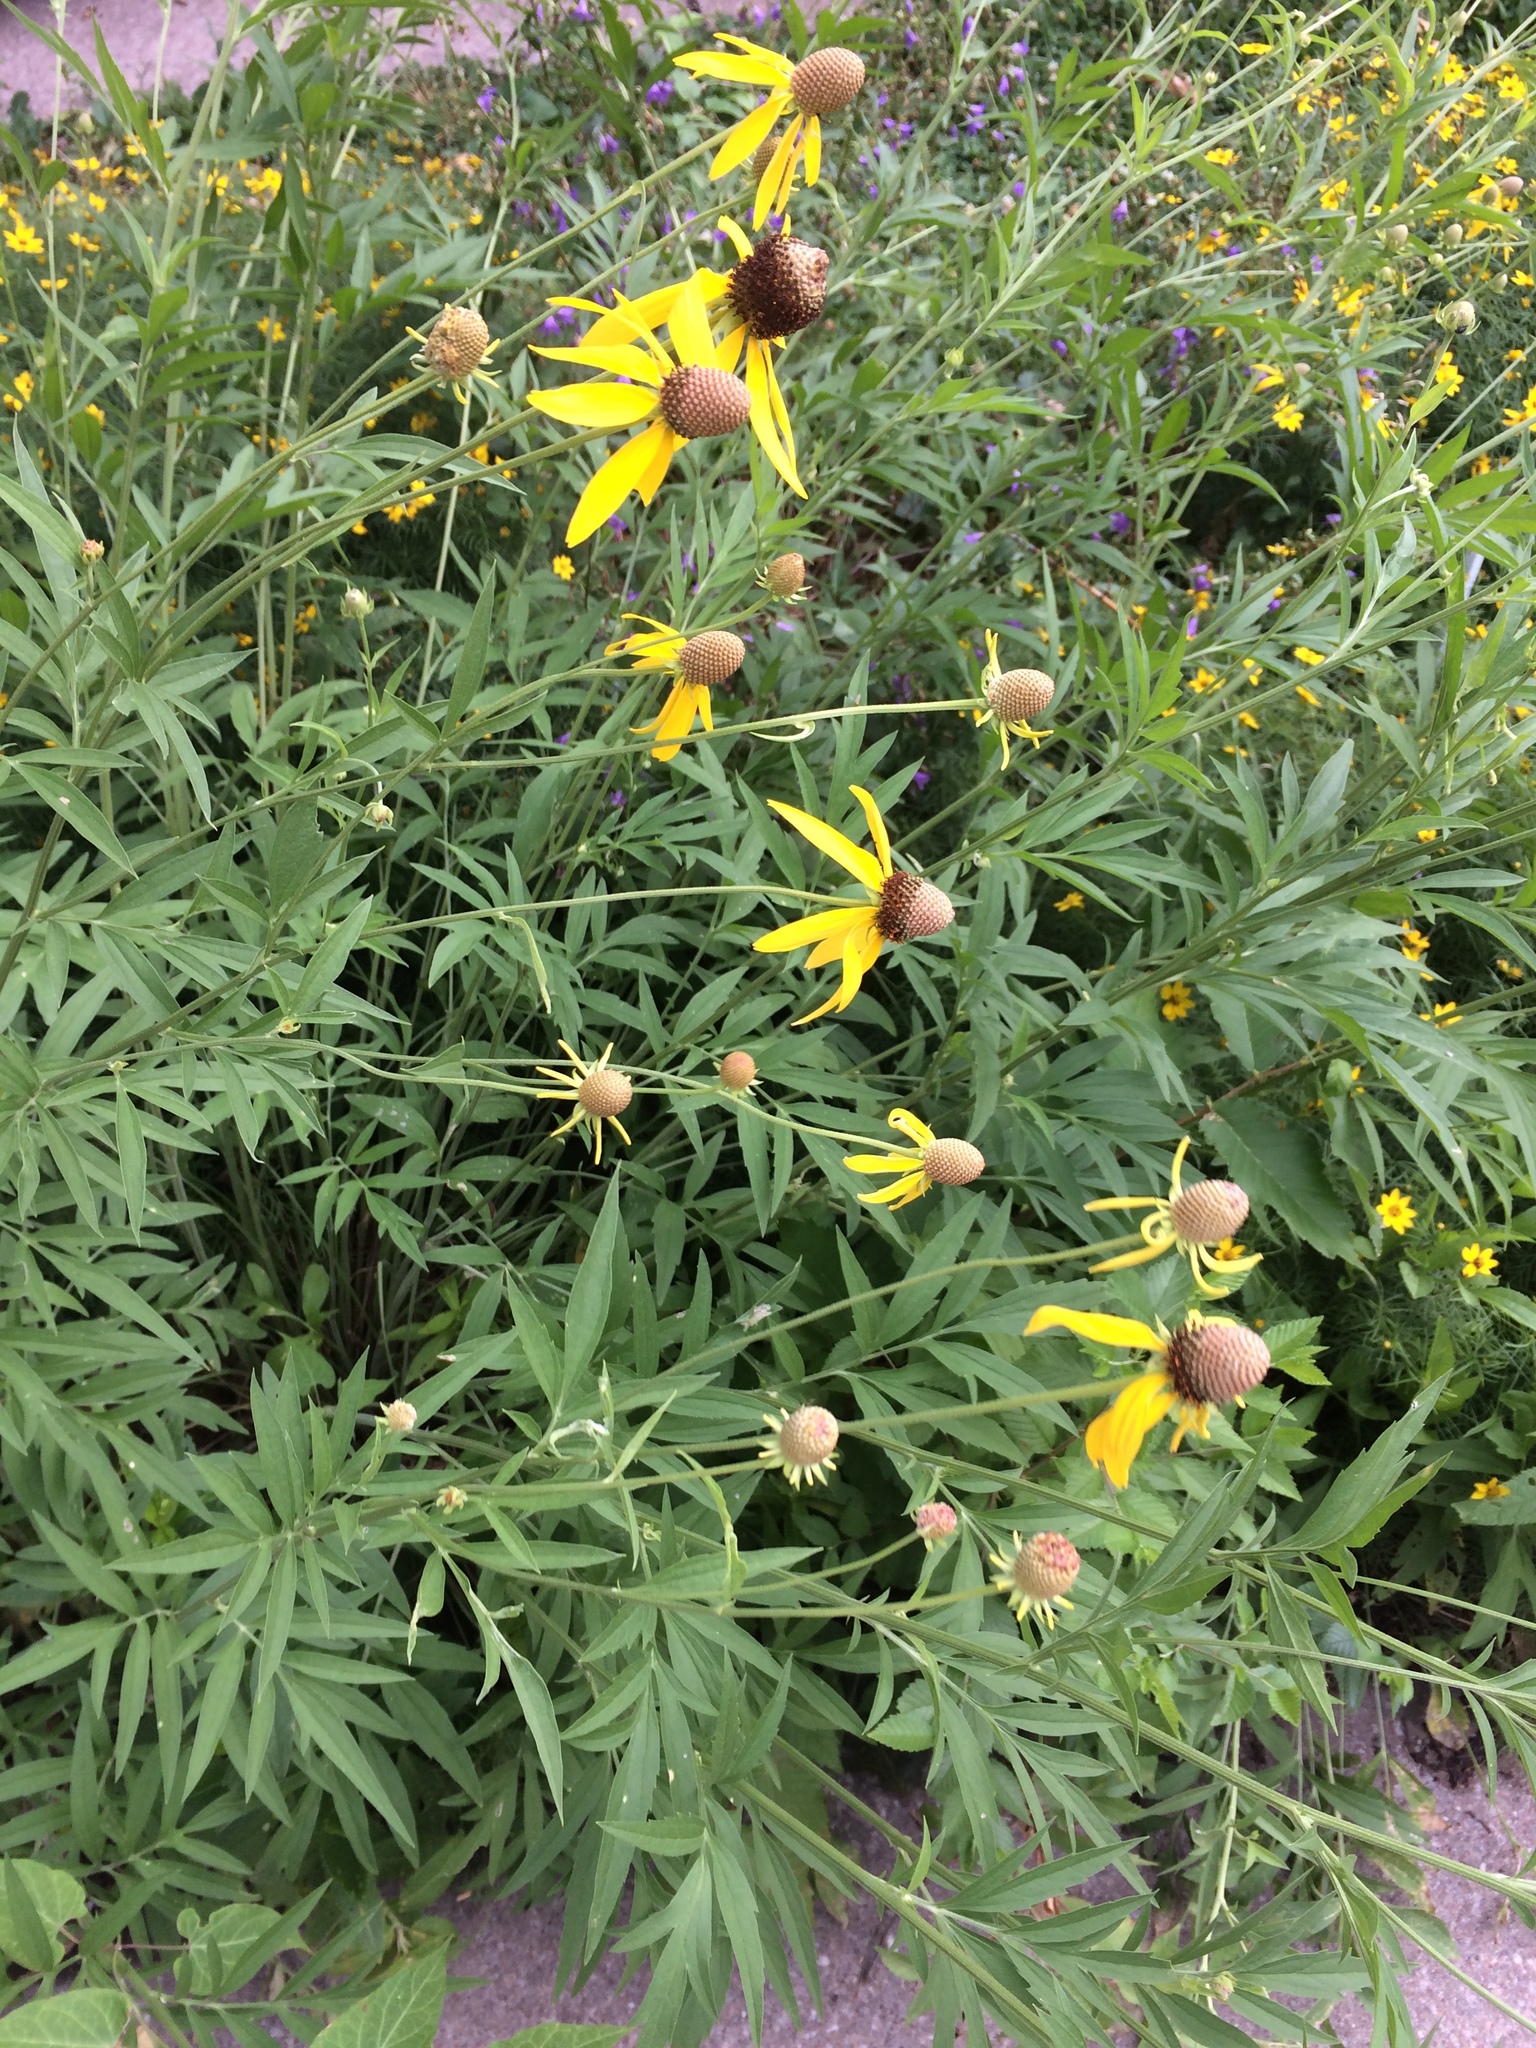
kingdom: Plantae
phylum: Tracheophyta
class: Magnoliopsida
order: Asterales
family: Asteraceae
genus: Ratibida
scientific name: Ratibida pinnata
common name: Drooping prairie-coneflower
